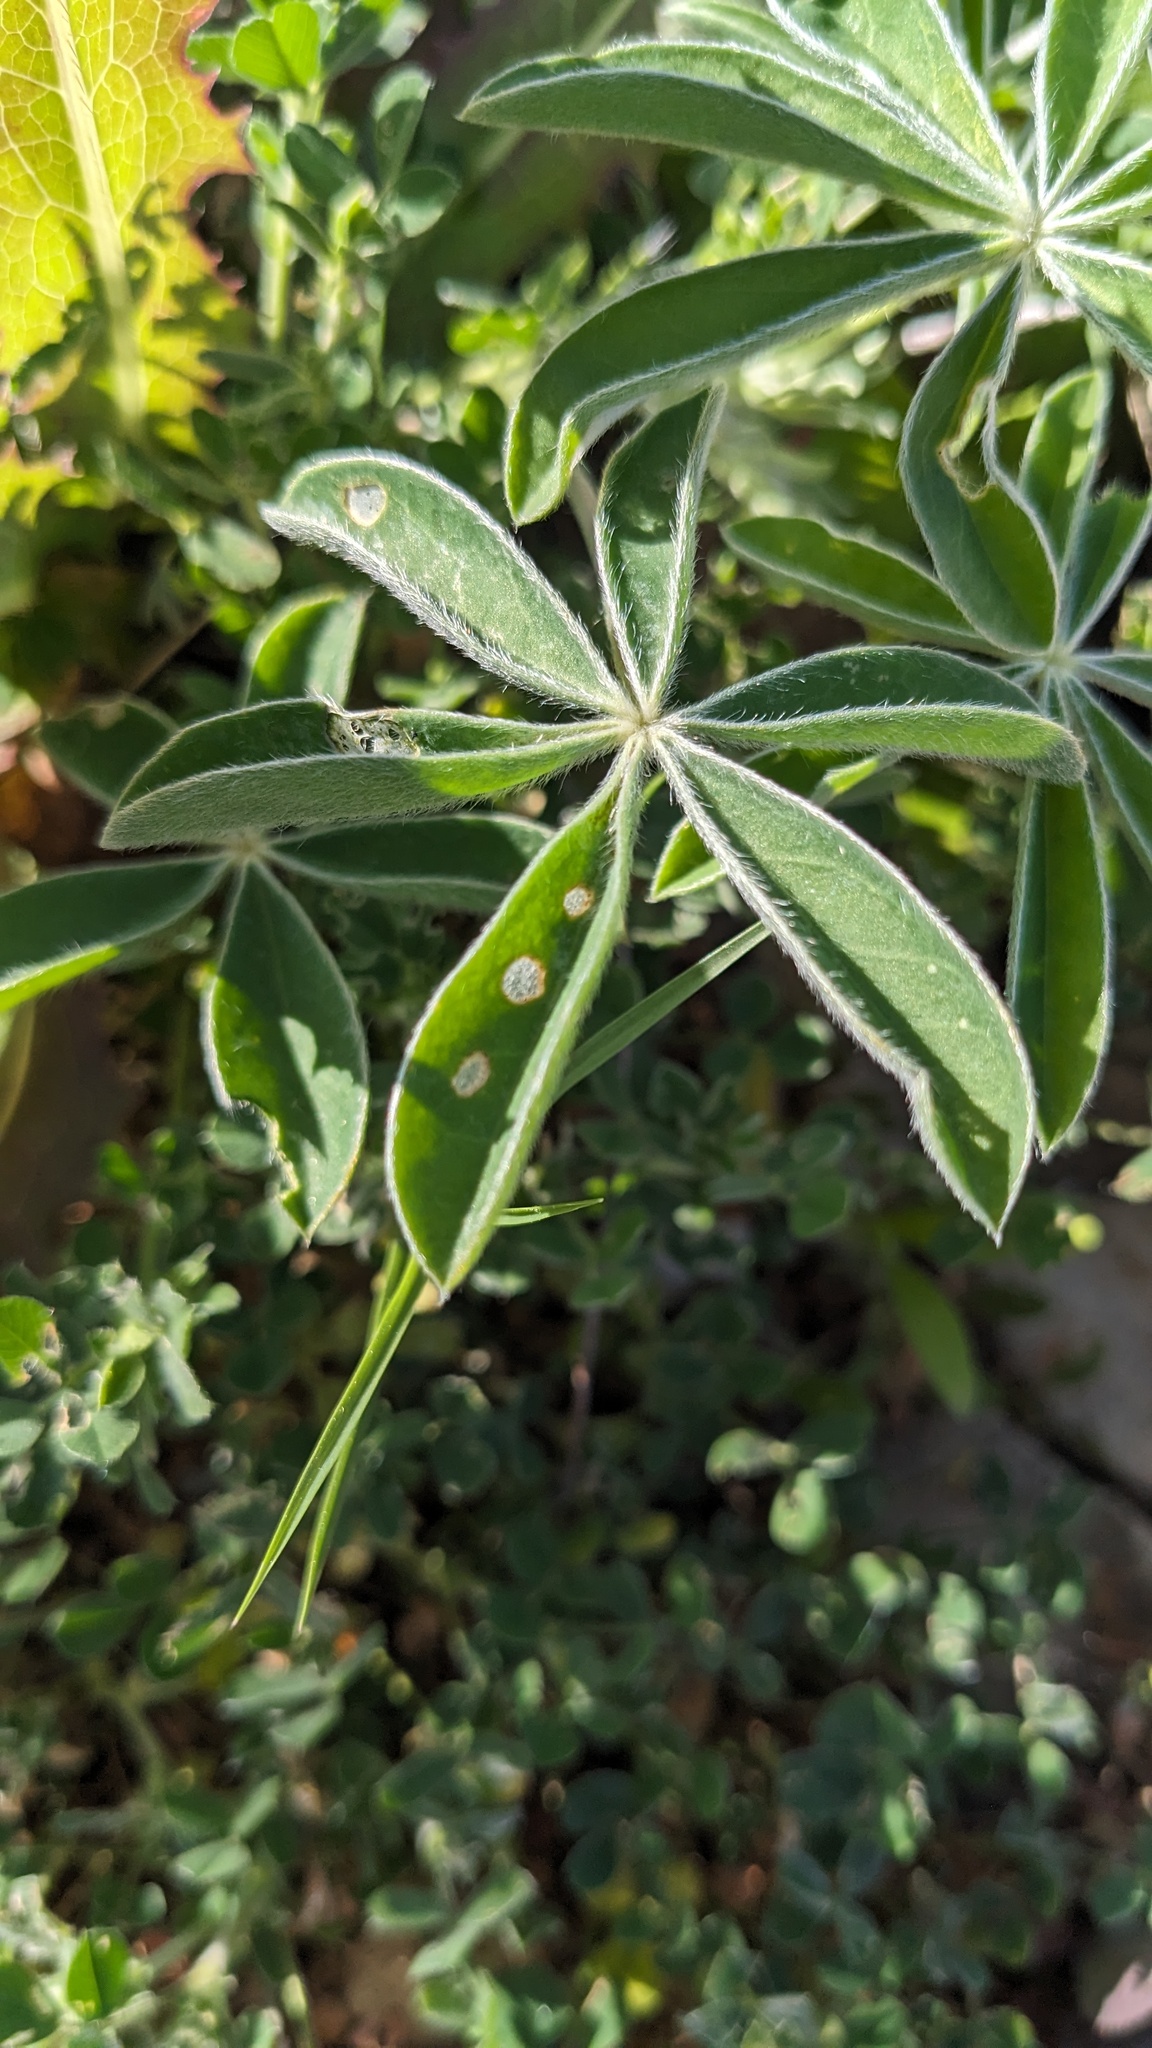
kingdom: Plantae
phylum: Tracheophyta
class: Magnoliopsida
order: Fabales
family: Fabaceae
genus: Lupinus
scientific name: Lupinus texensis
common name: Texas bluebonnet
